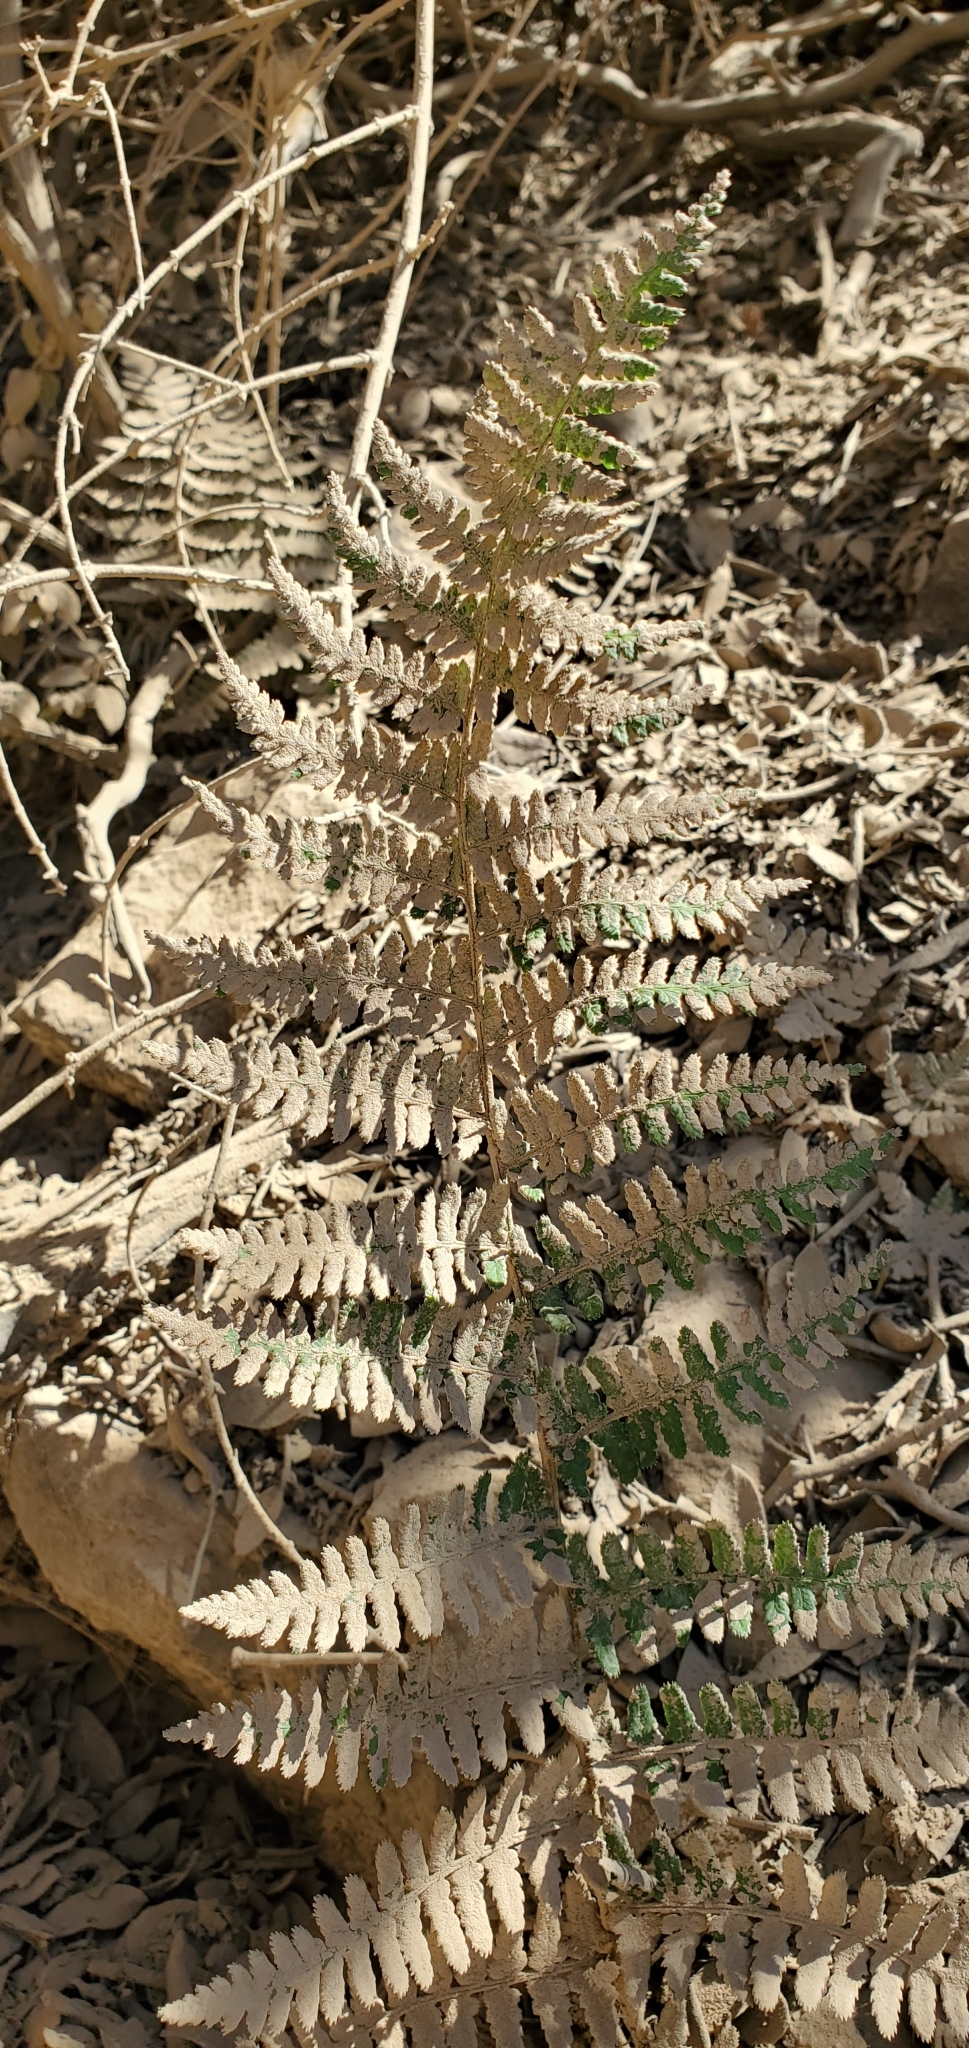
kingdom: Plantae
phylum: Tracheophyta
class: Polypodiopsida
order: Polypodiales
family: Dryopteridaceae
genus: Dryopteris
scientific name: Dryopteris arguta
